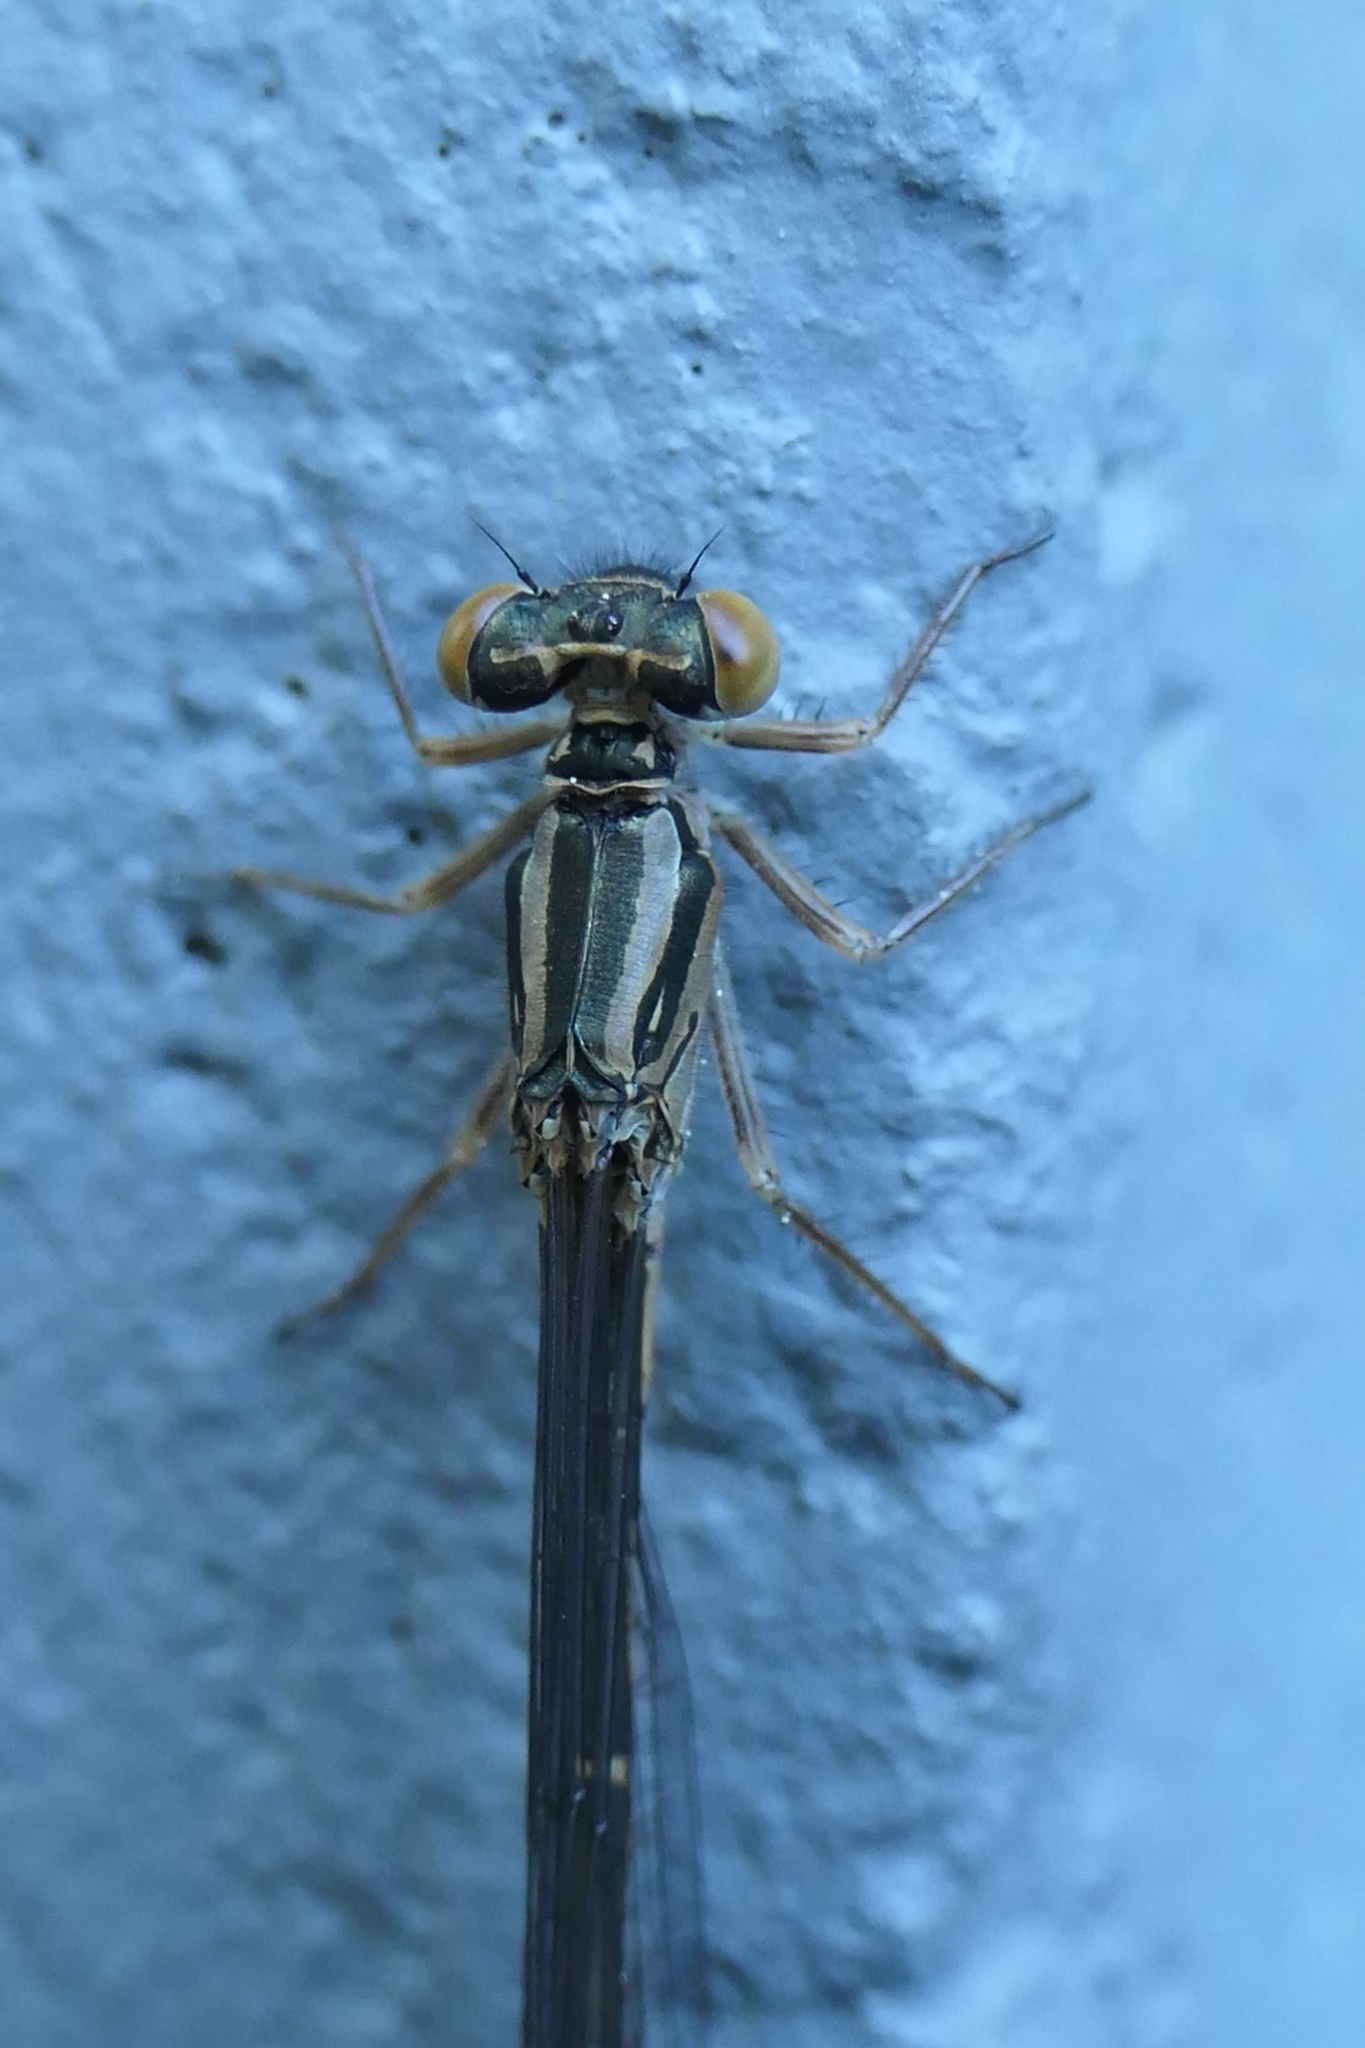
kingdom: Animalia
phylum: Arthropoda
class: Insecta
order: Odonata
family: Coenagrionidae
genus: Xanthocnemis
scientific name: Xanthocnemis zealandica
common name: Common redcoat damselfly
